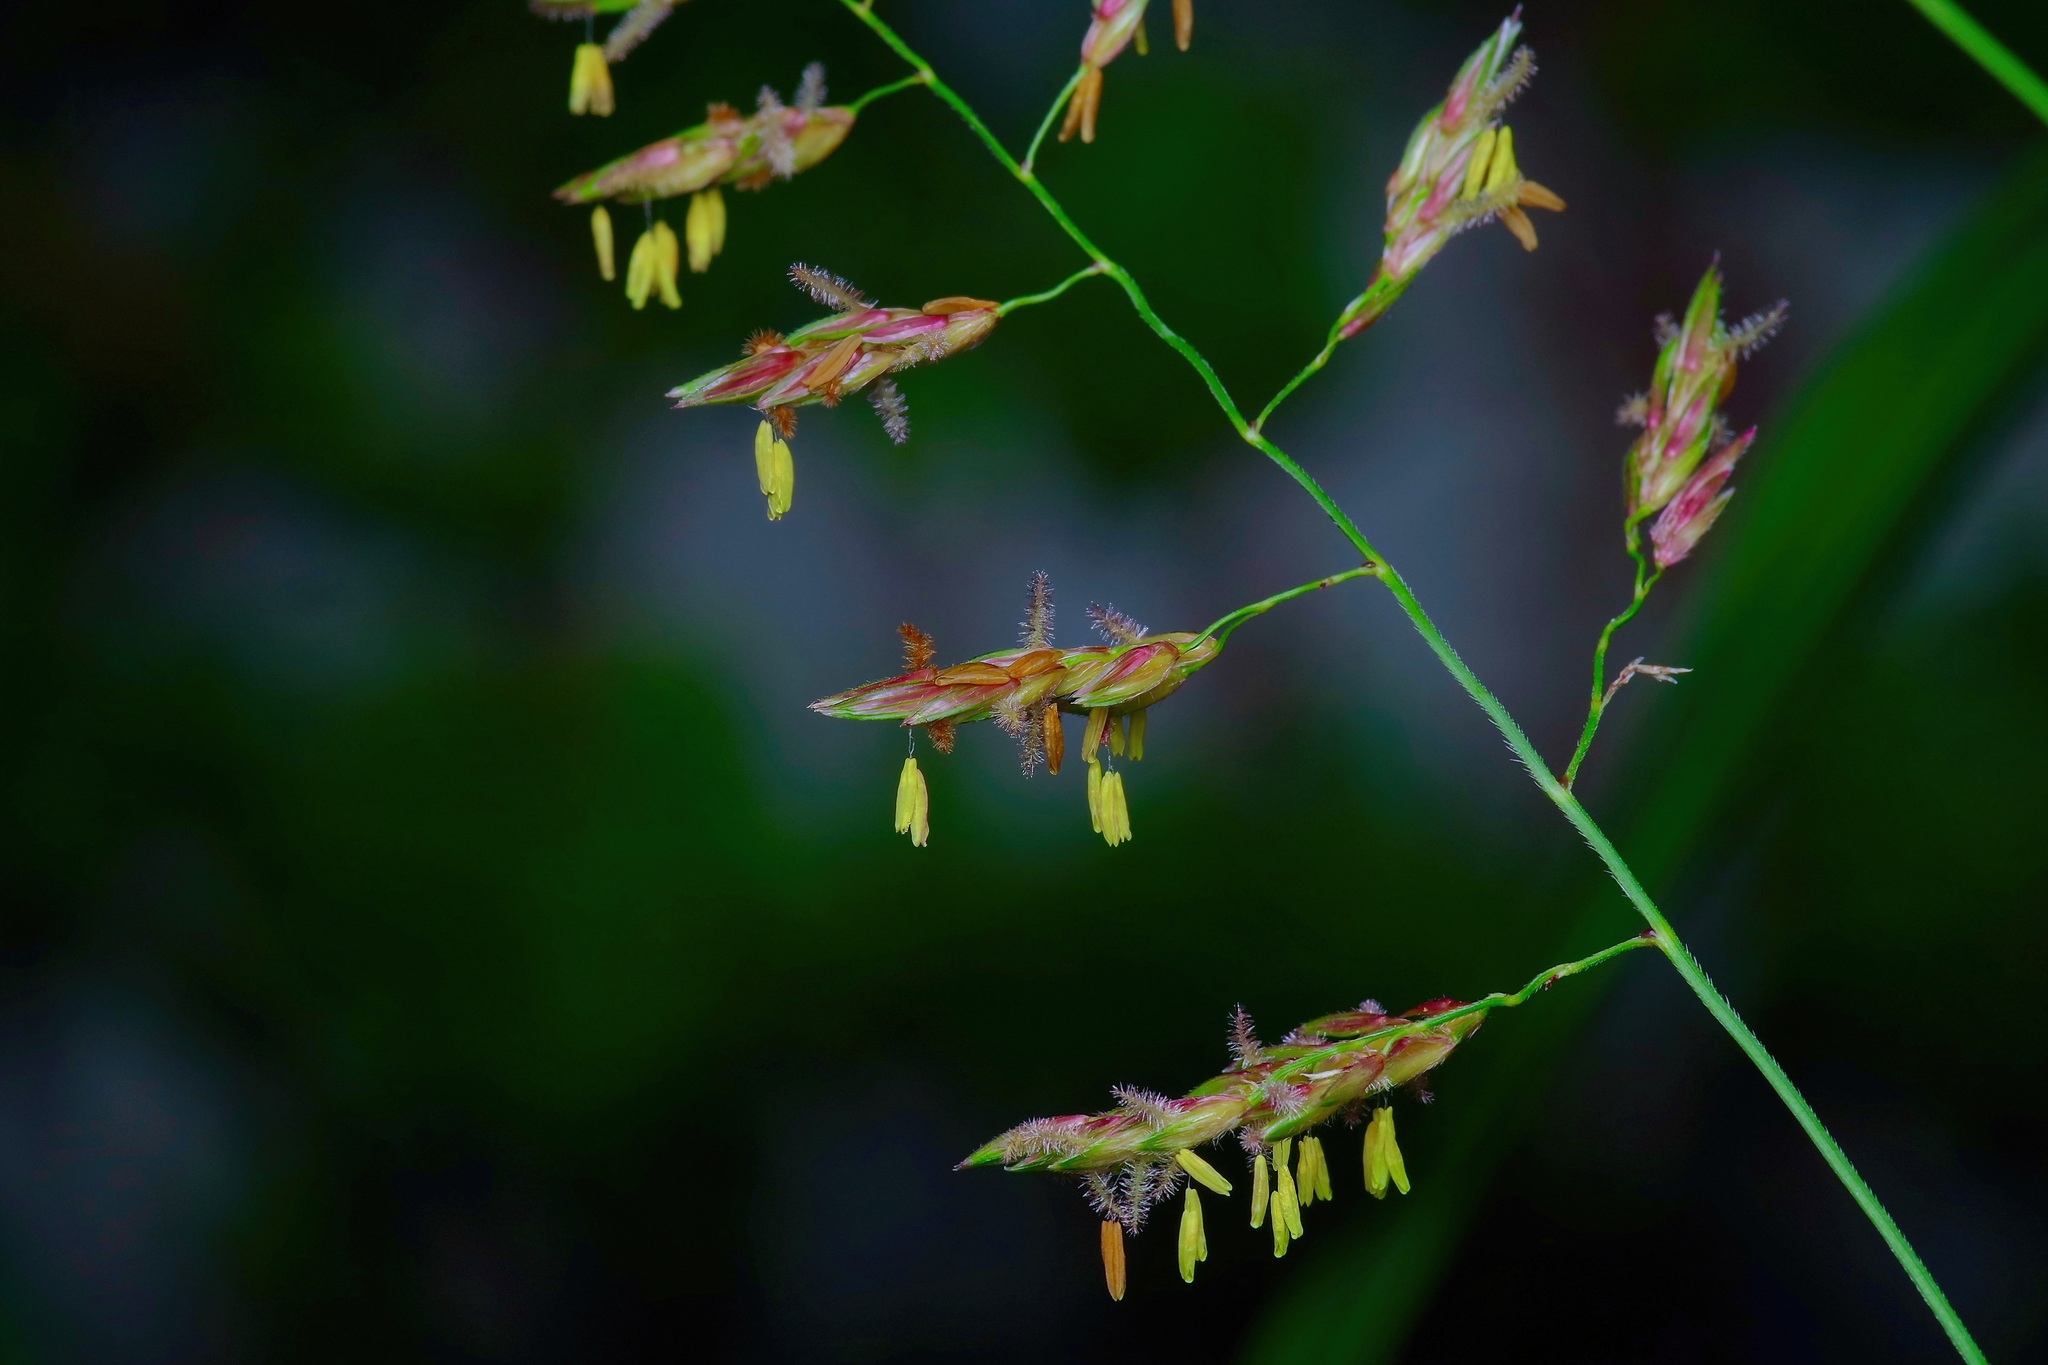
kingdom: Plantae
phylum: Tracheophyta
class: Liliopsida
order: Poales
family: Poaceae
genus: Sorghum
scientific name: Sorghum halepense
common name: Johnson-grass
